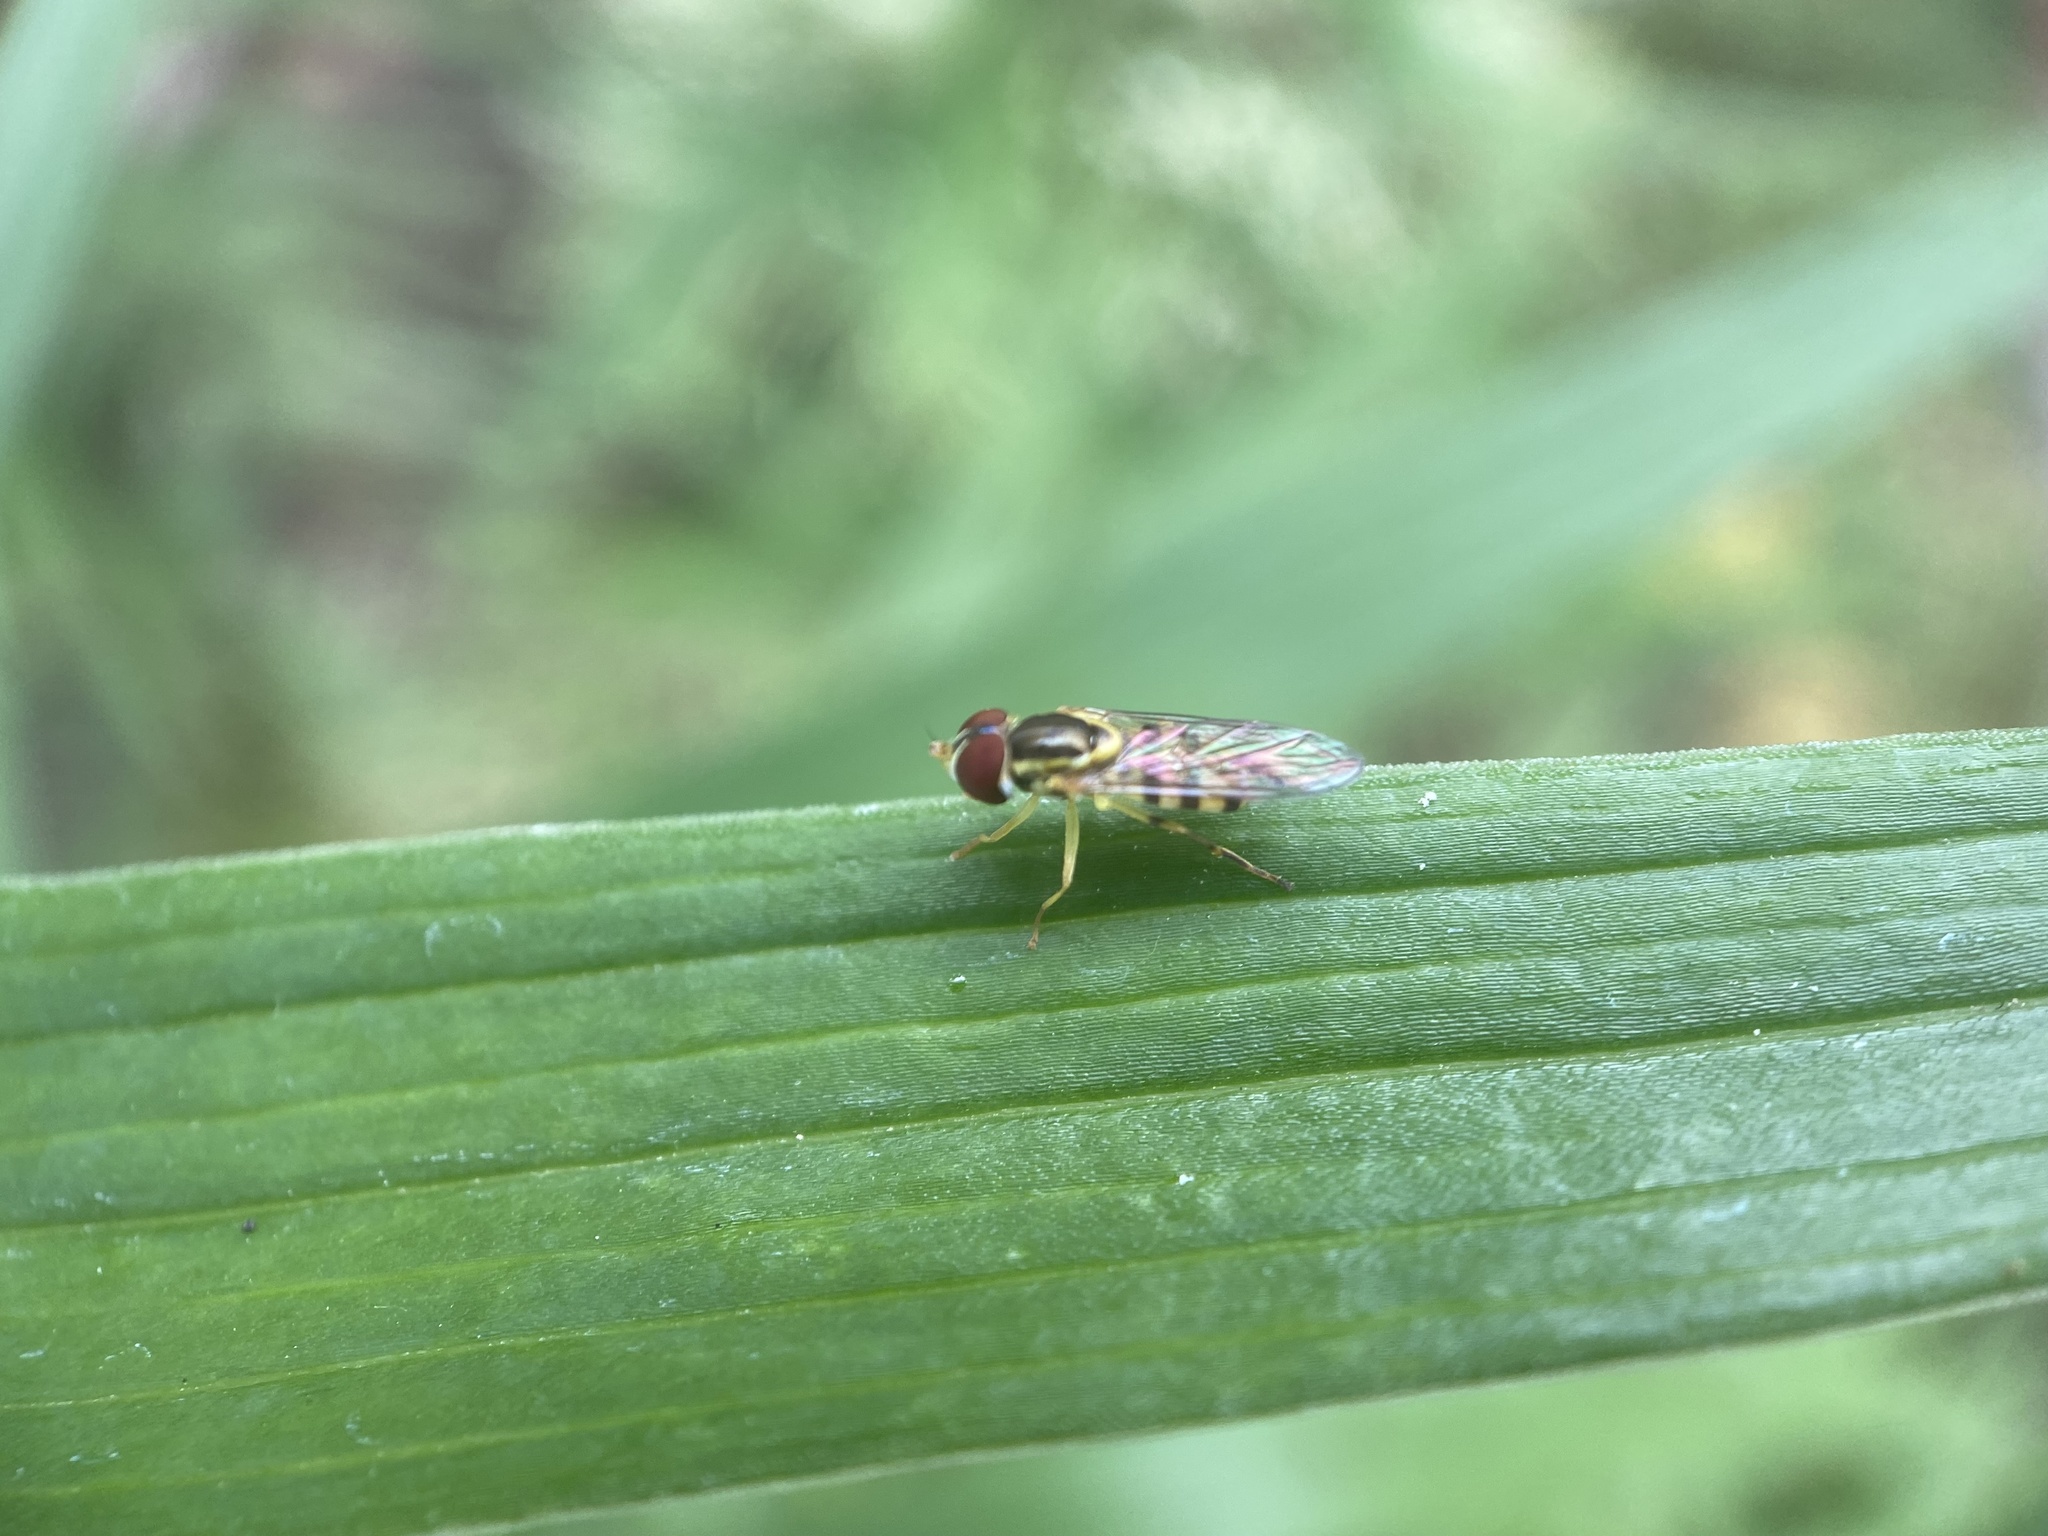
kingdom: Animalia
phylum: Arthropoda
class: Insecta
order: Diptera
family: Syrphidae
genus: Toxomerus
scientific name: Toxomerus geminatus
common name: Eastern calligrapher
